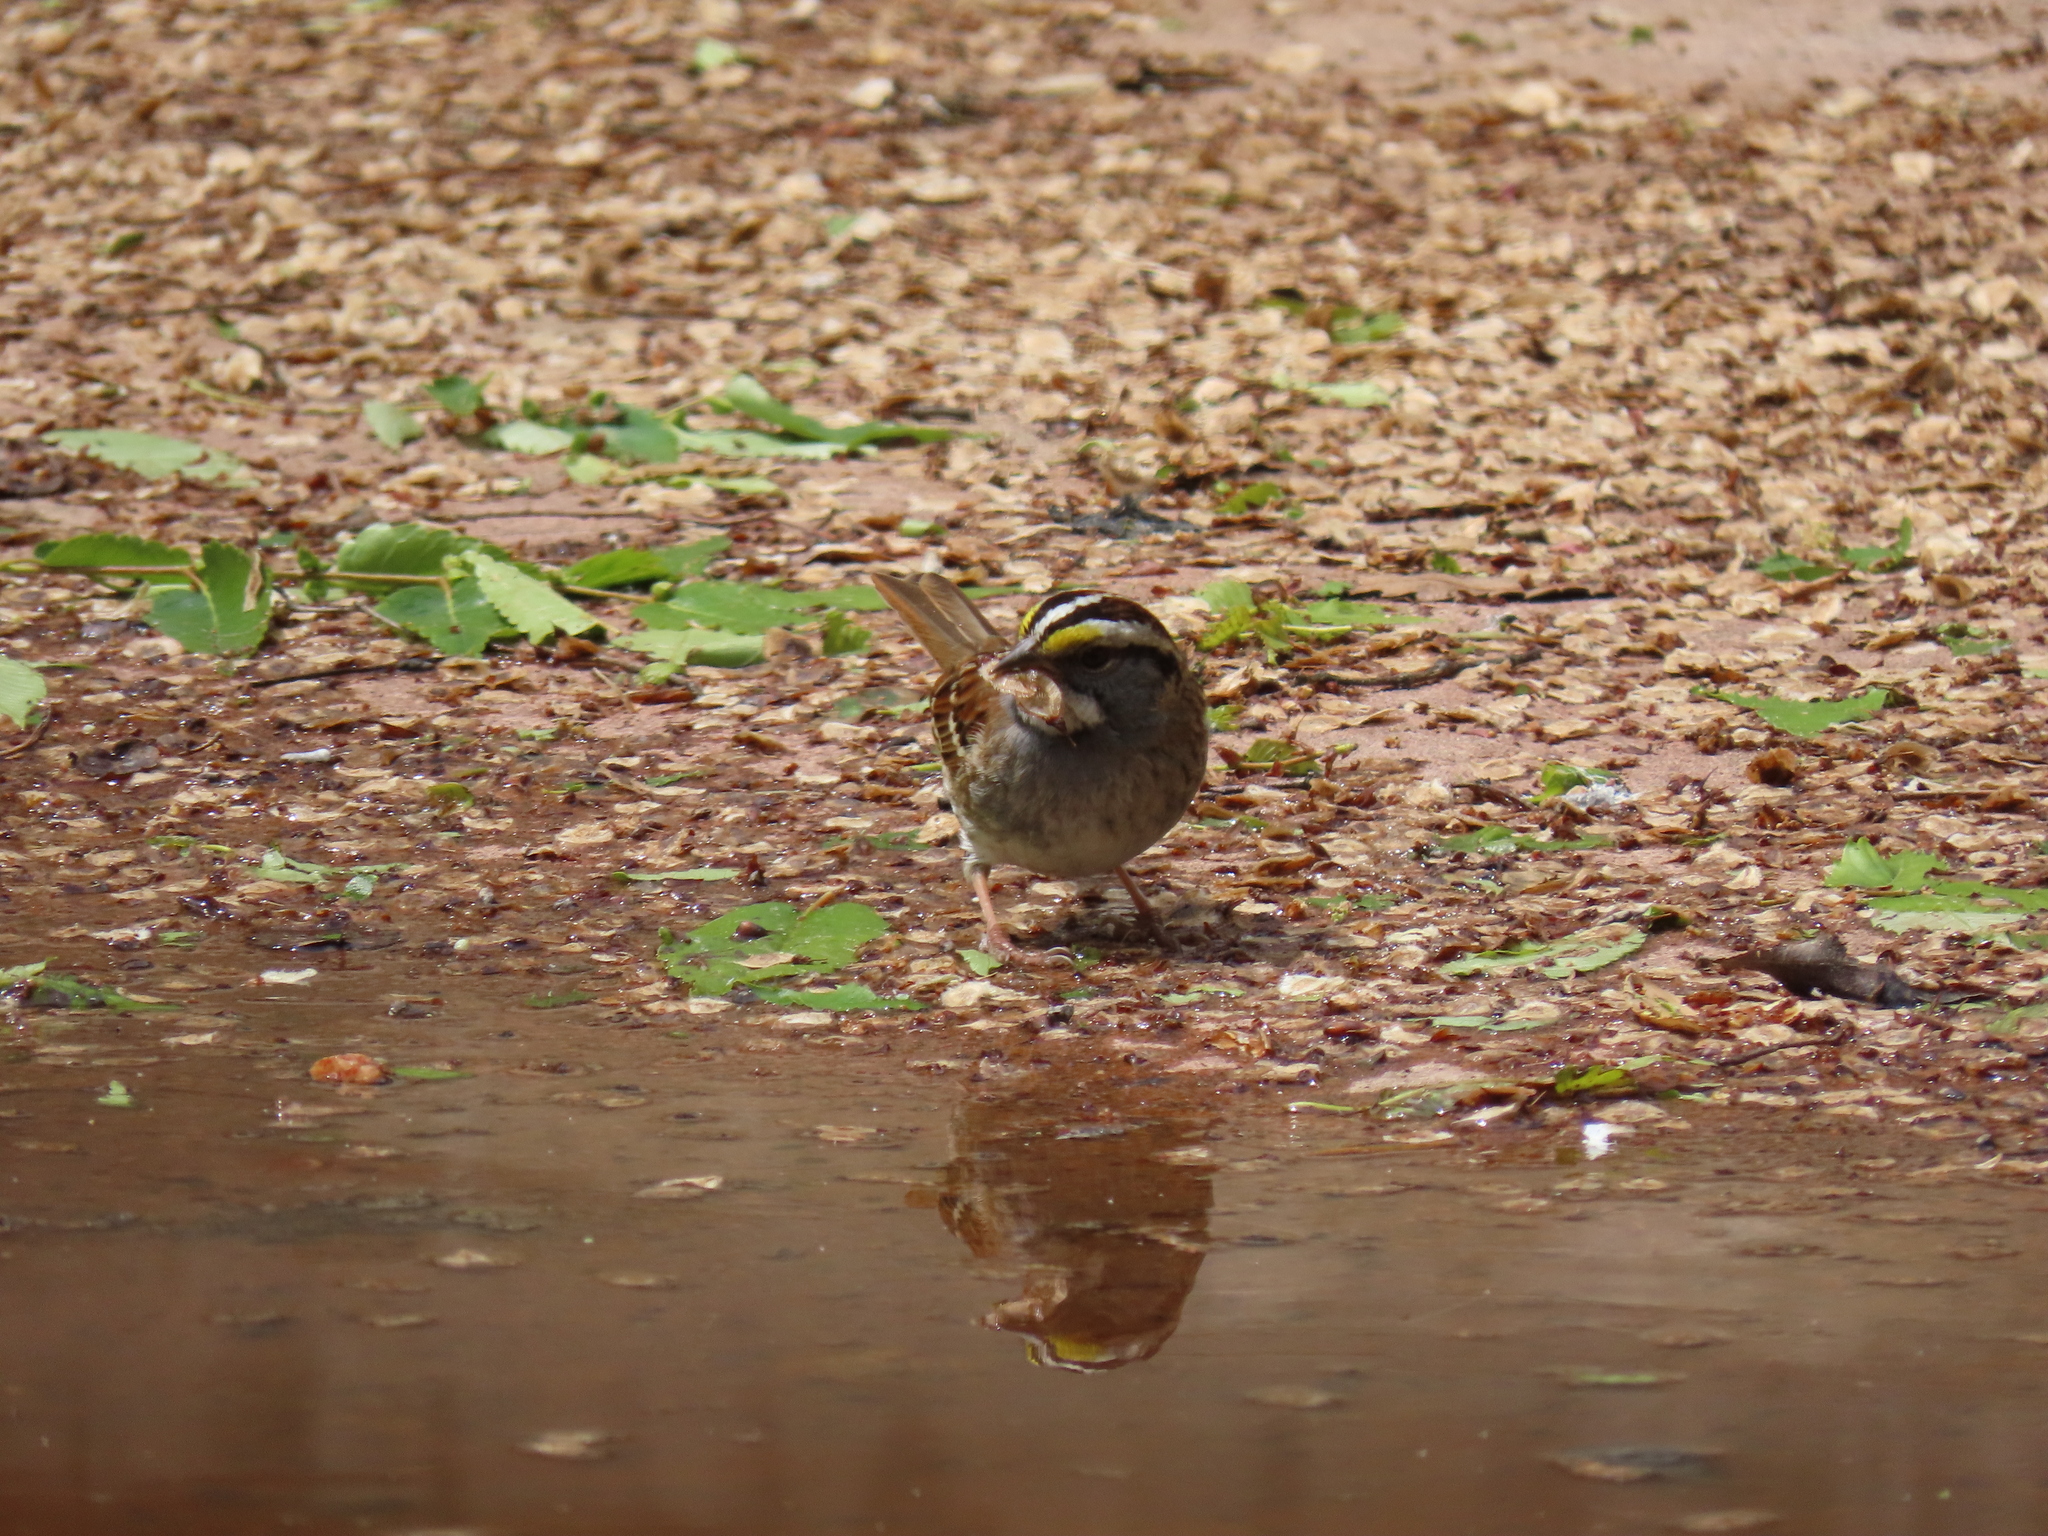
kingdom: Animalia
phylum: Chordata
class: Aves
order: Passeriformes
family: Passerellidae
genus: Zonotrichia
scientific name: Zonotrichia albicollis
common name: White-throated sparrow
